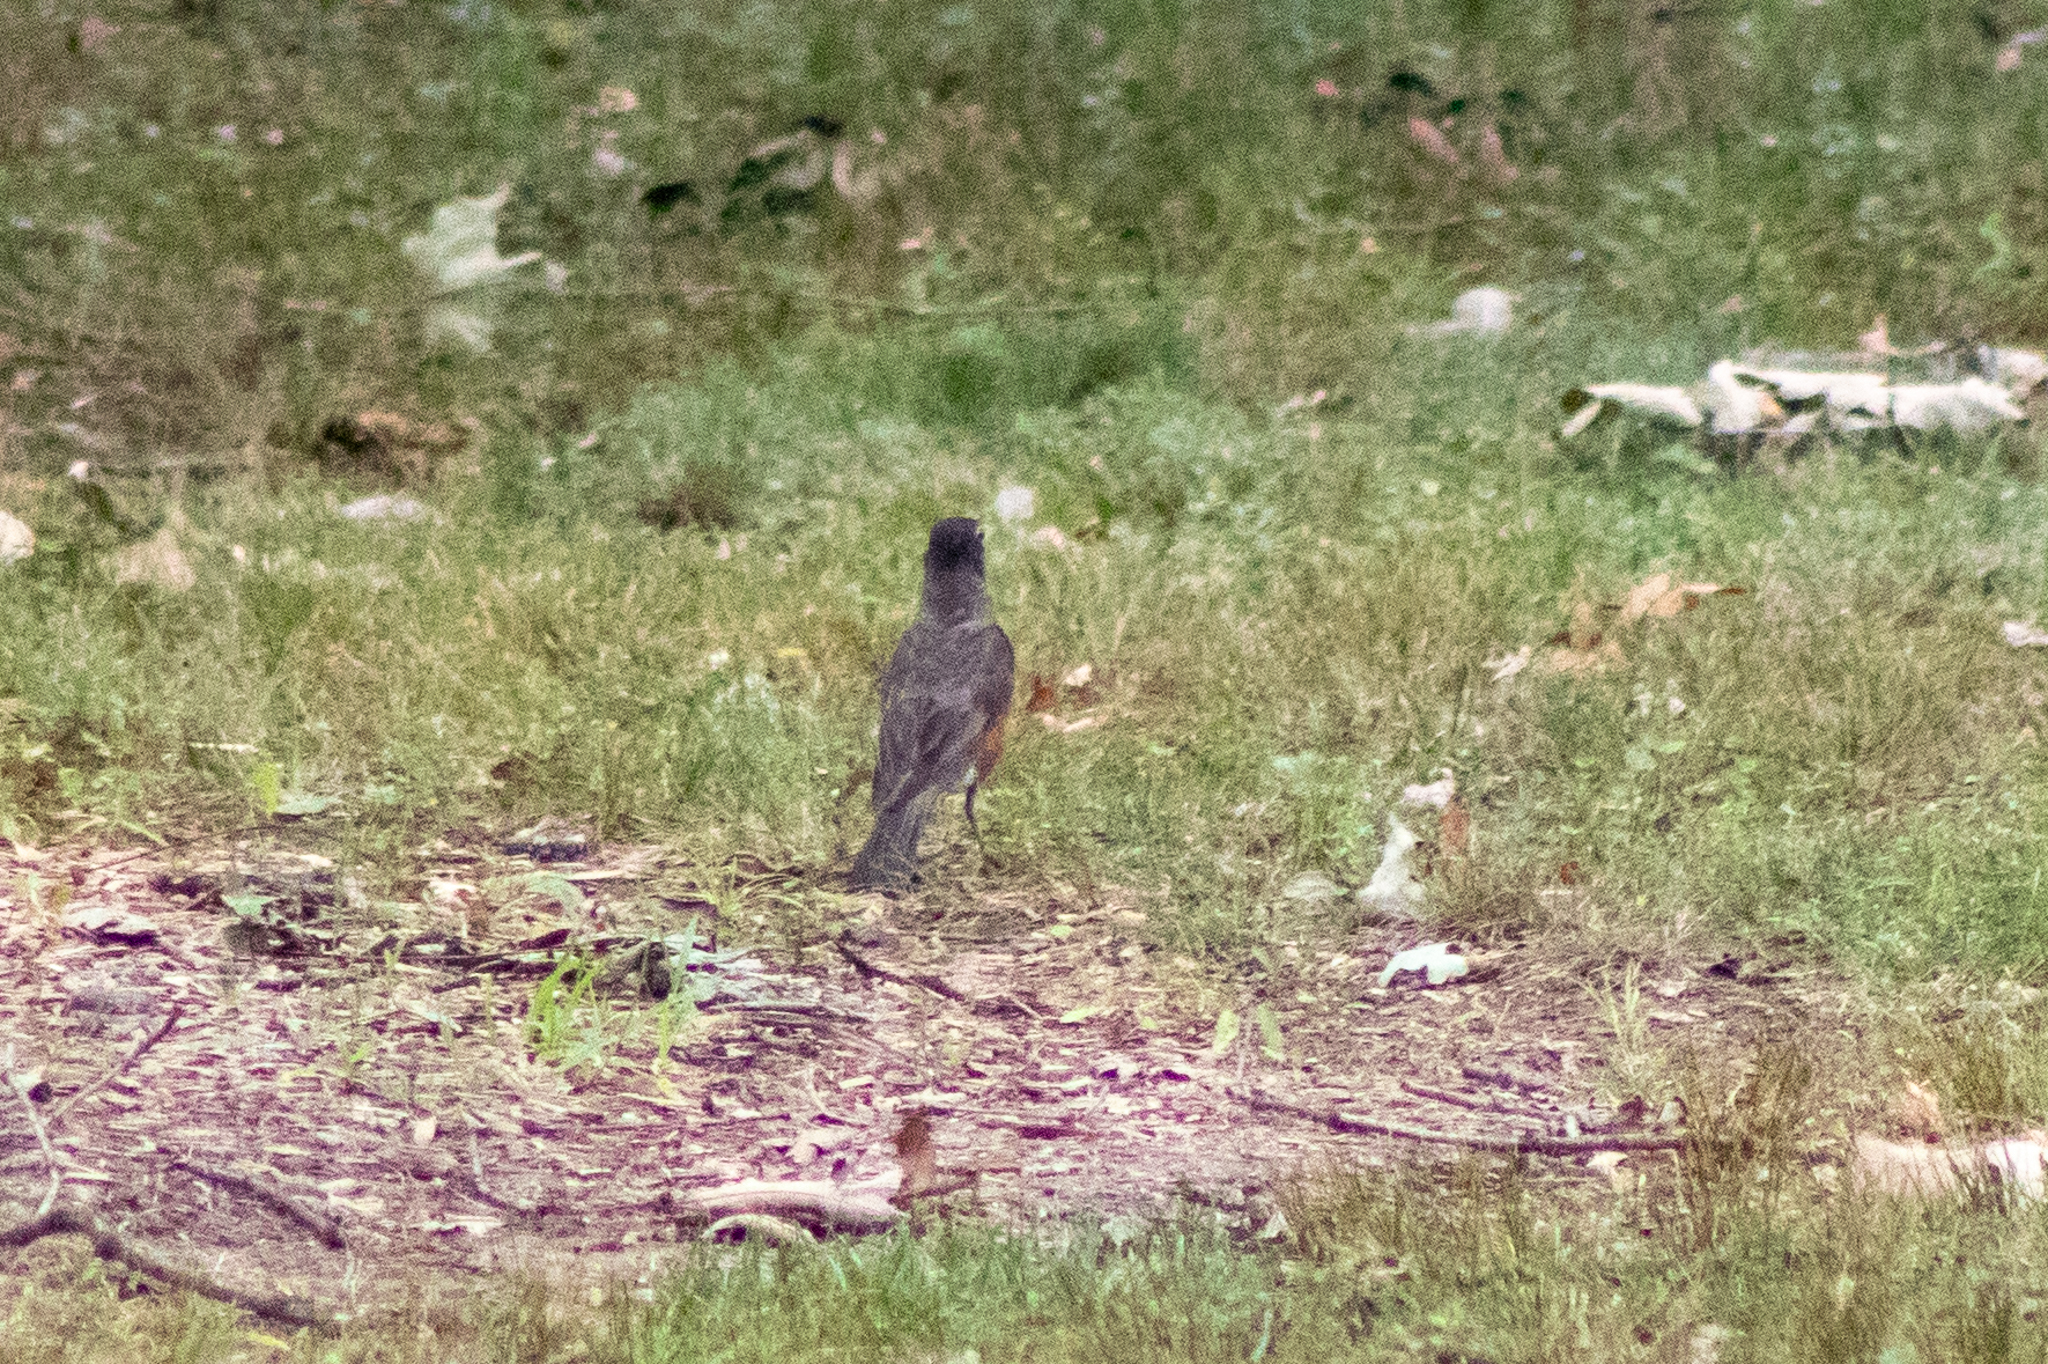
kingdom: Animalia
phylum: Chordata
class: Aves
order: Passeriformes
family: Turdidae
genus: Turdus
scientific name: Turdus migratorius
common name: American robin
